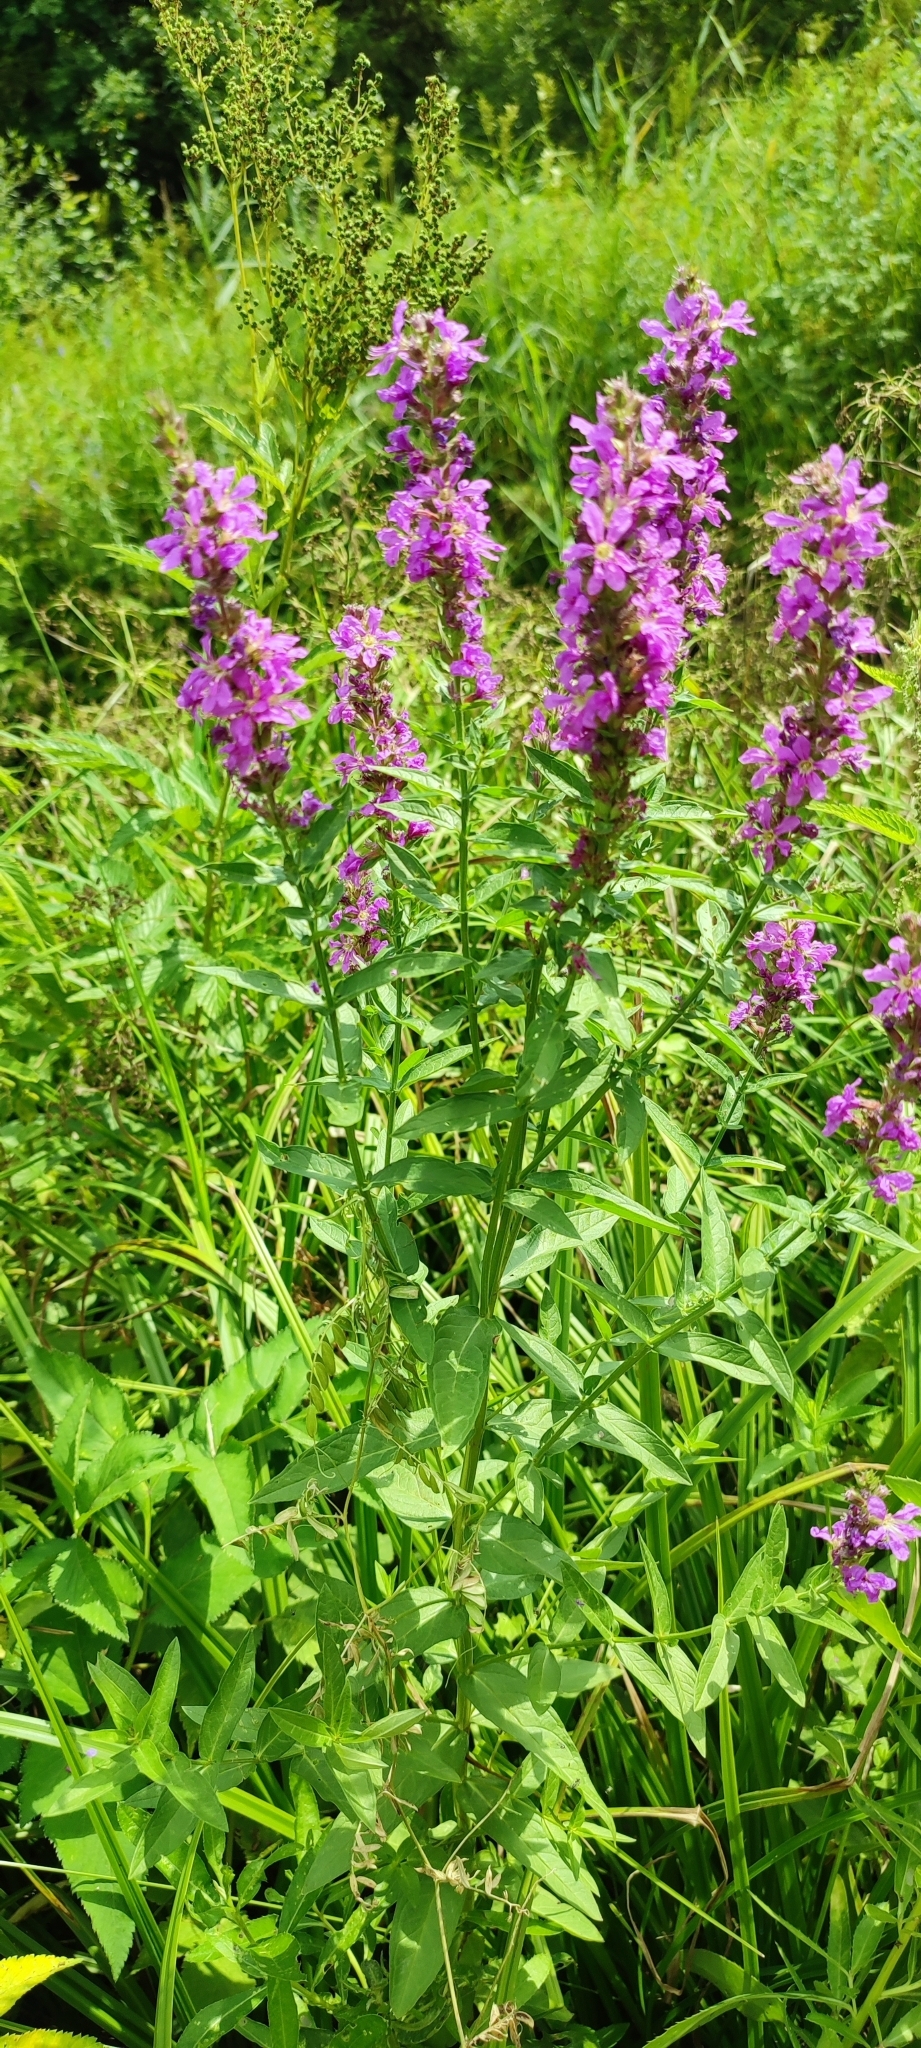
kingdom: Plantae
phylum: Tracheophyta
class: Magnoliopsida
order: Myrtales
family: Lythraceae
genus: Lythrum
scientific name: Lythrum salicaria
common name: Purple loosestrife
